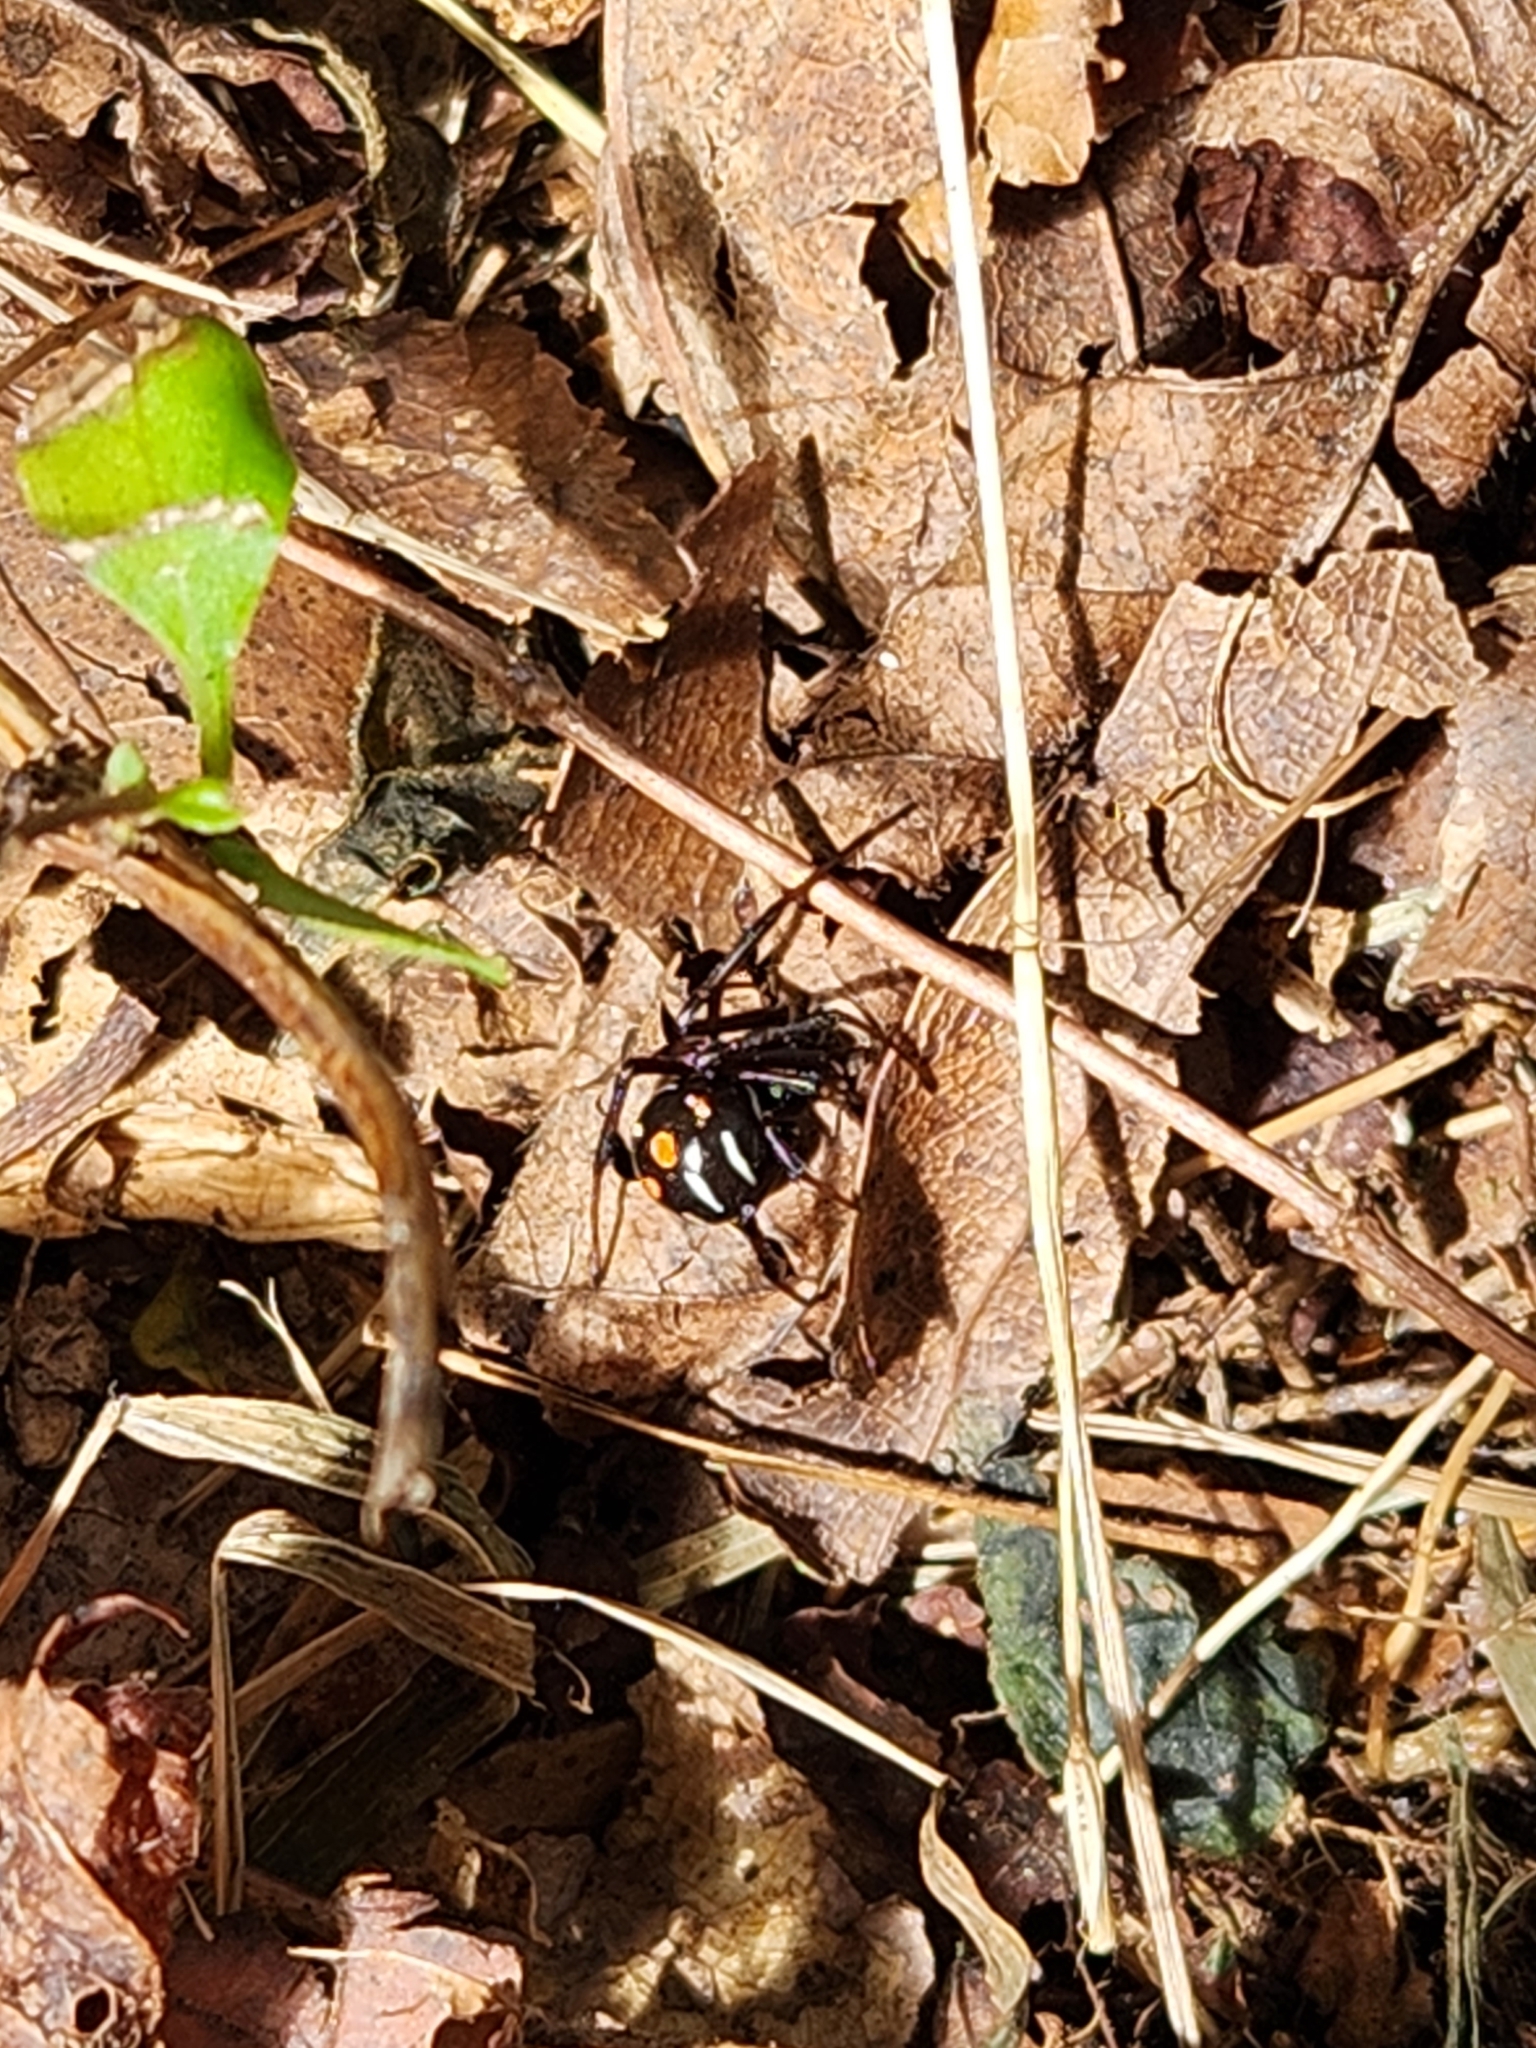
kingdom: Animalia
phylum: Arthropoda
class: Arachnida
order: Araneae
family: Theridiidae
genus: Latrodectus
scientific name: Latrodectus variolus
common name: Northern black widow
